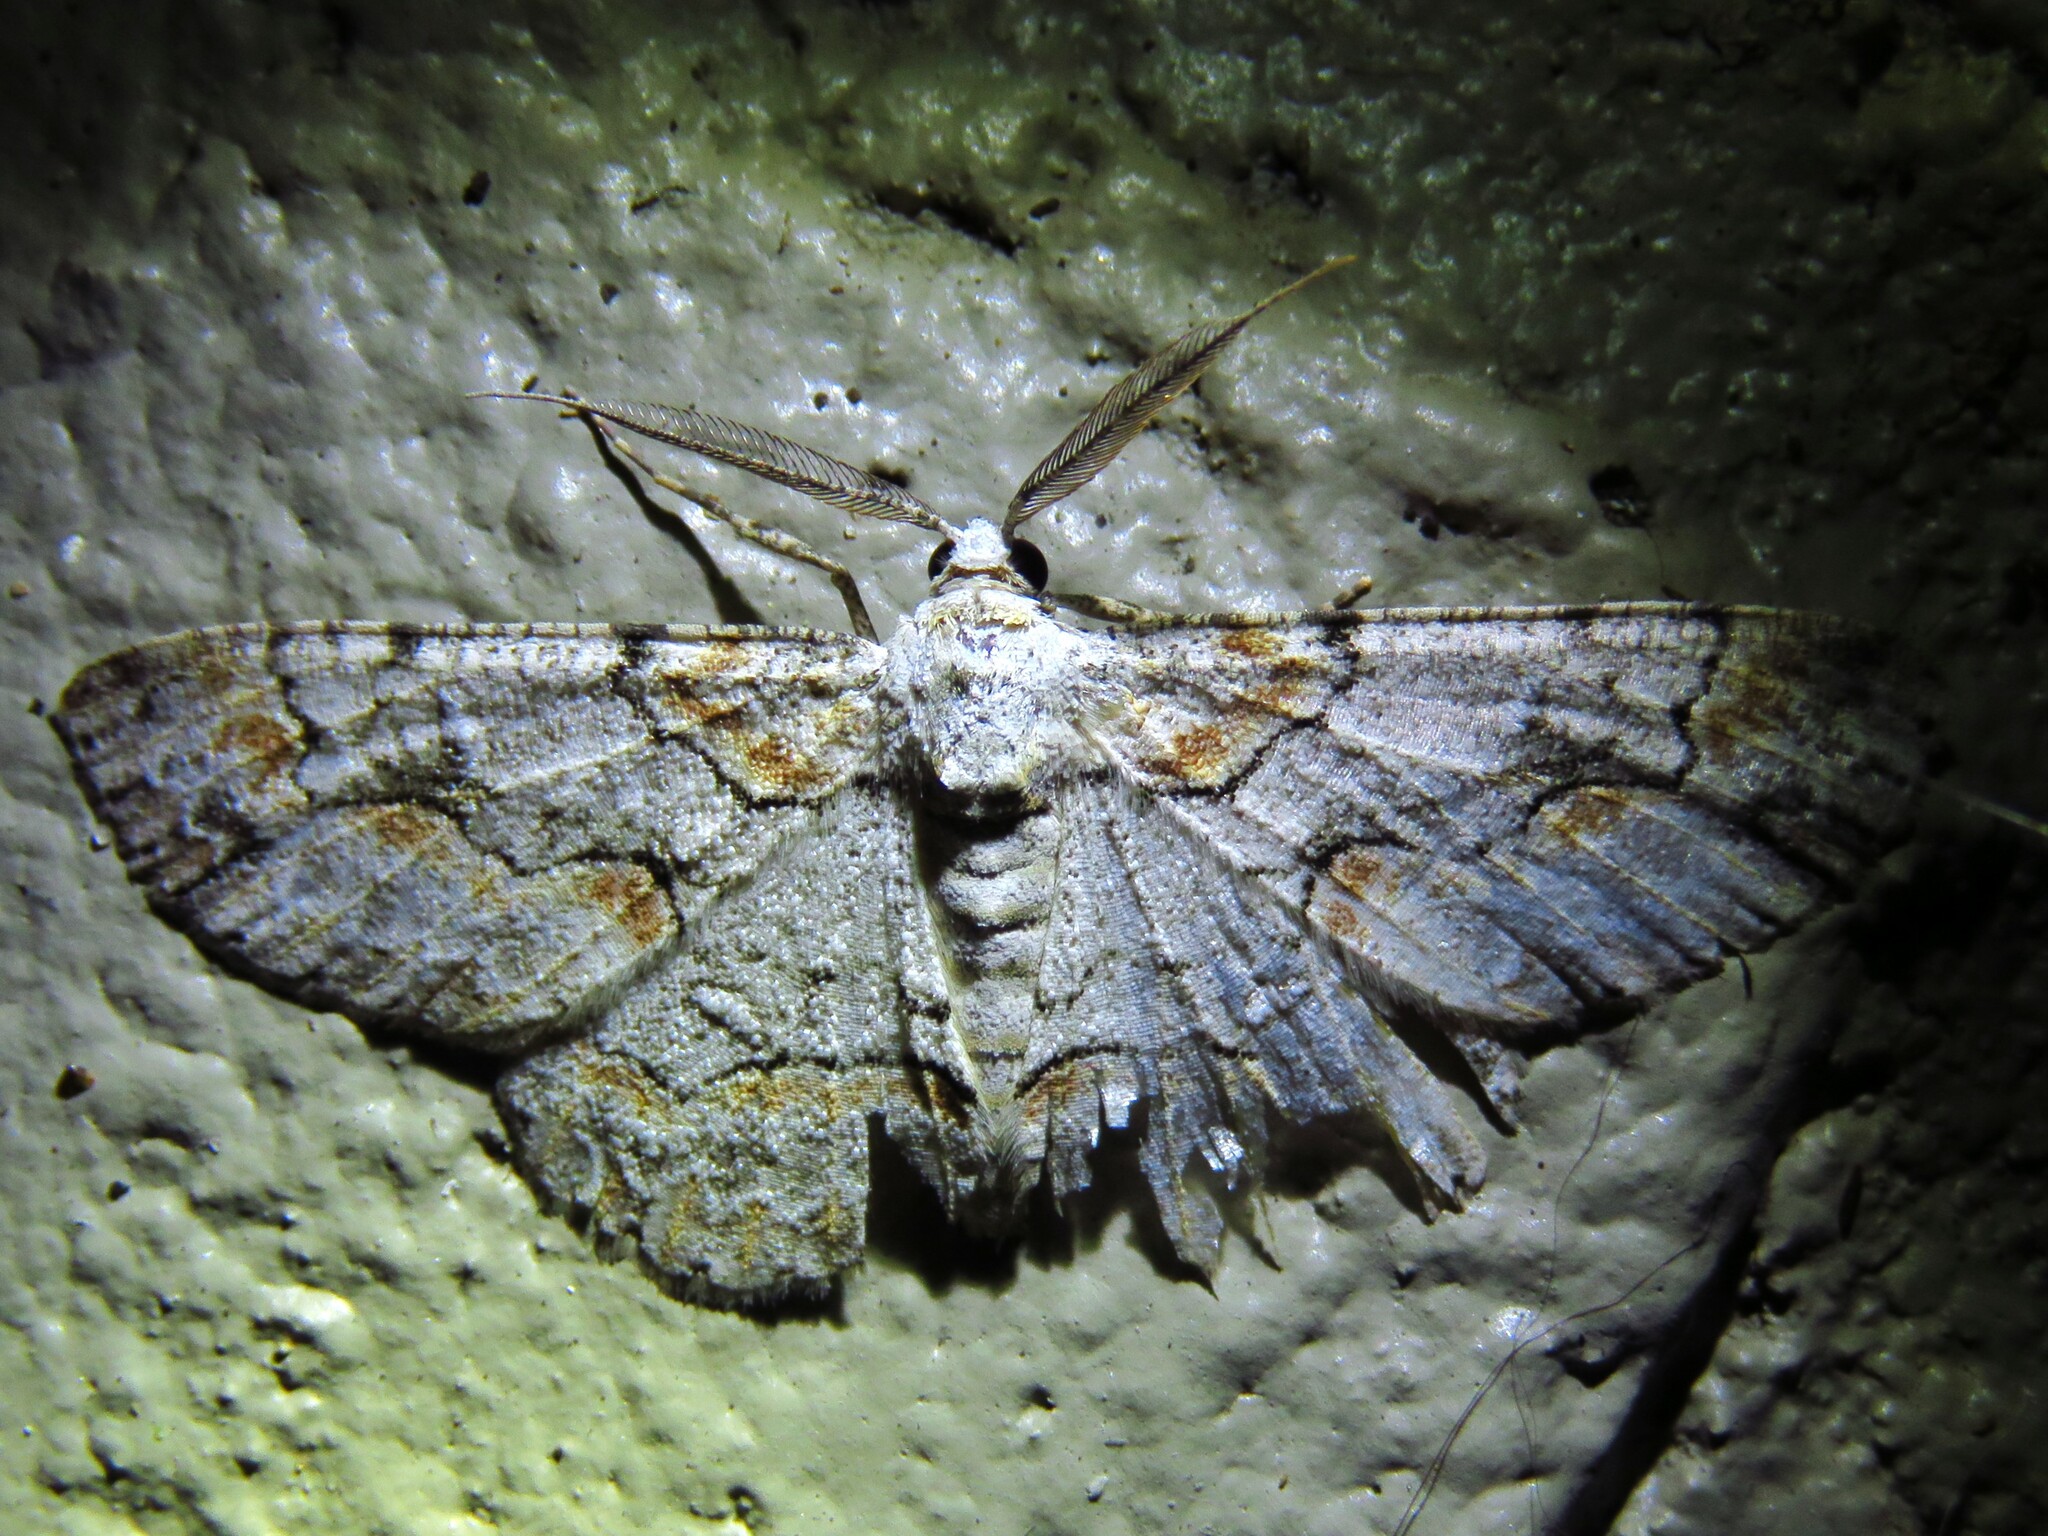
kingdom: Animalia
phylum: Arthropoda
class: Insecta
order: Lepidoptera
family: Geometridae
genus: Iridopsis
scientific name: Iridopsis defectaria
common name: Brown-shaded gray
